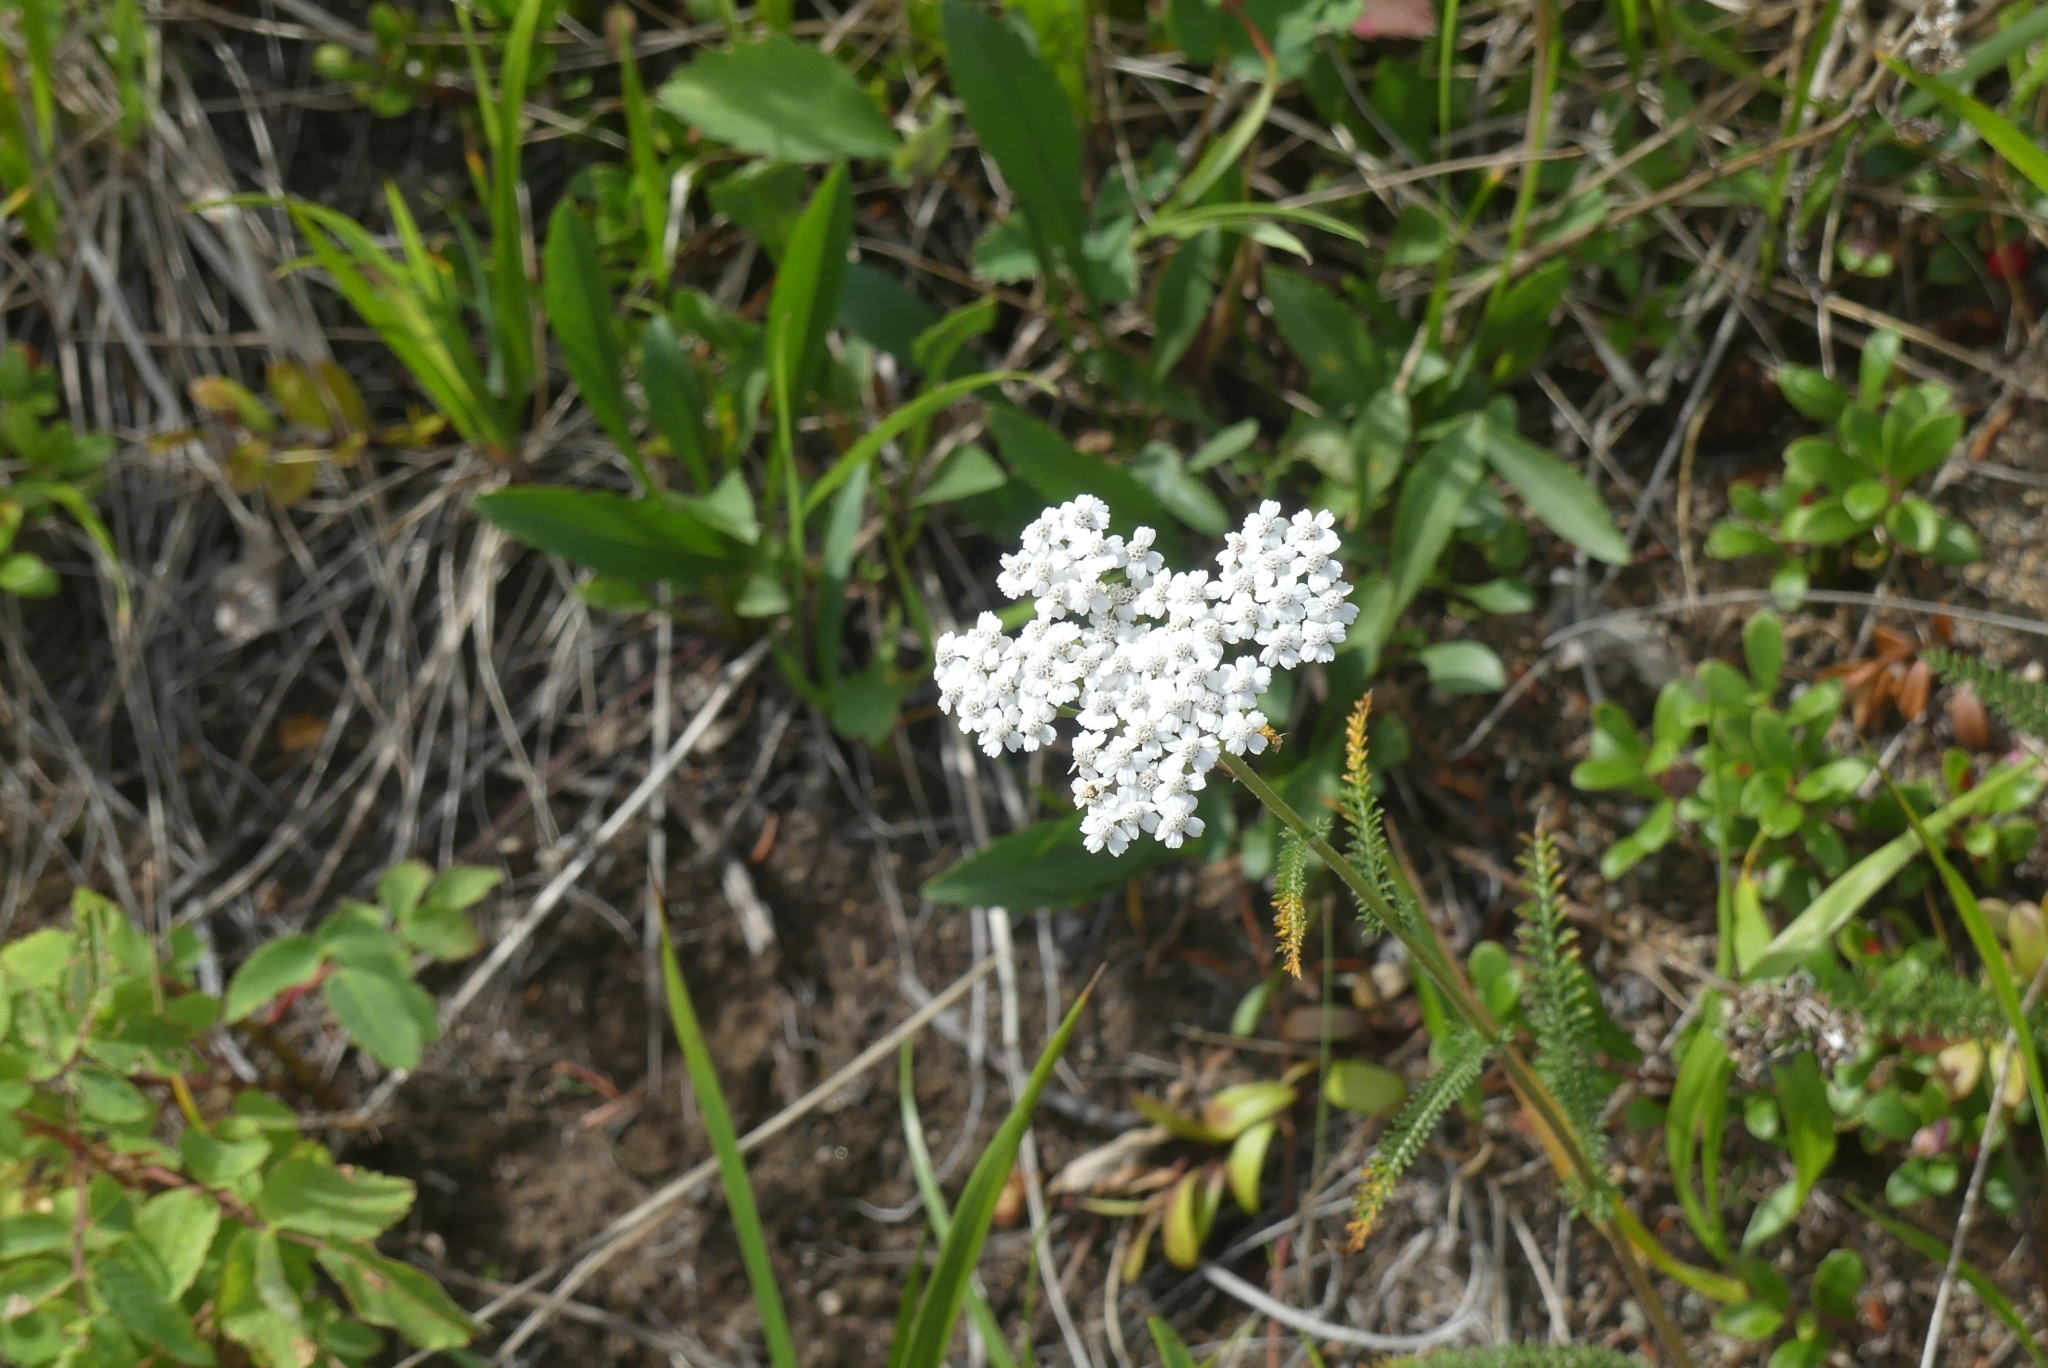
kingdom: Plantae
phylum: Tracheophyta
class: Magnoliopsida
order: Asterales
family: Asteraceae
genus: Achillea
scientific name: Achillea millefolium
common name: Yarrow
